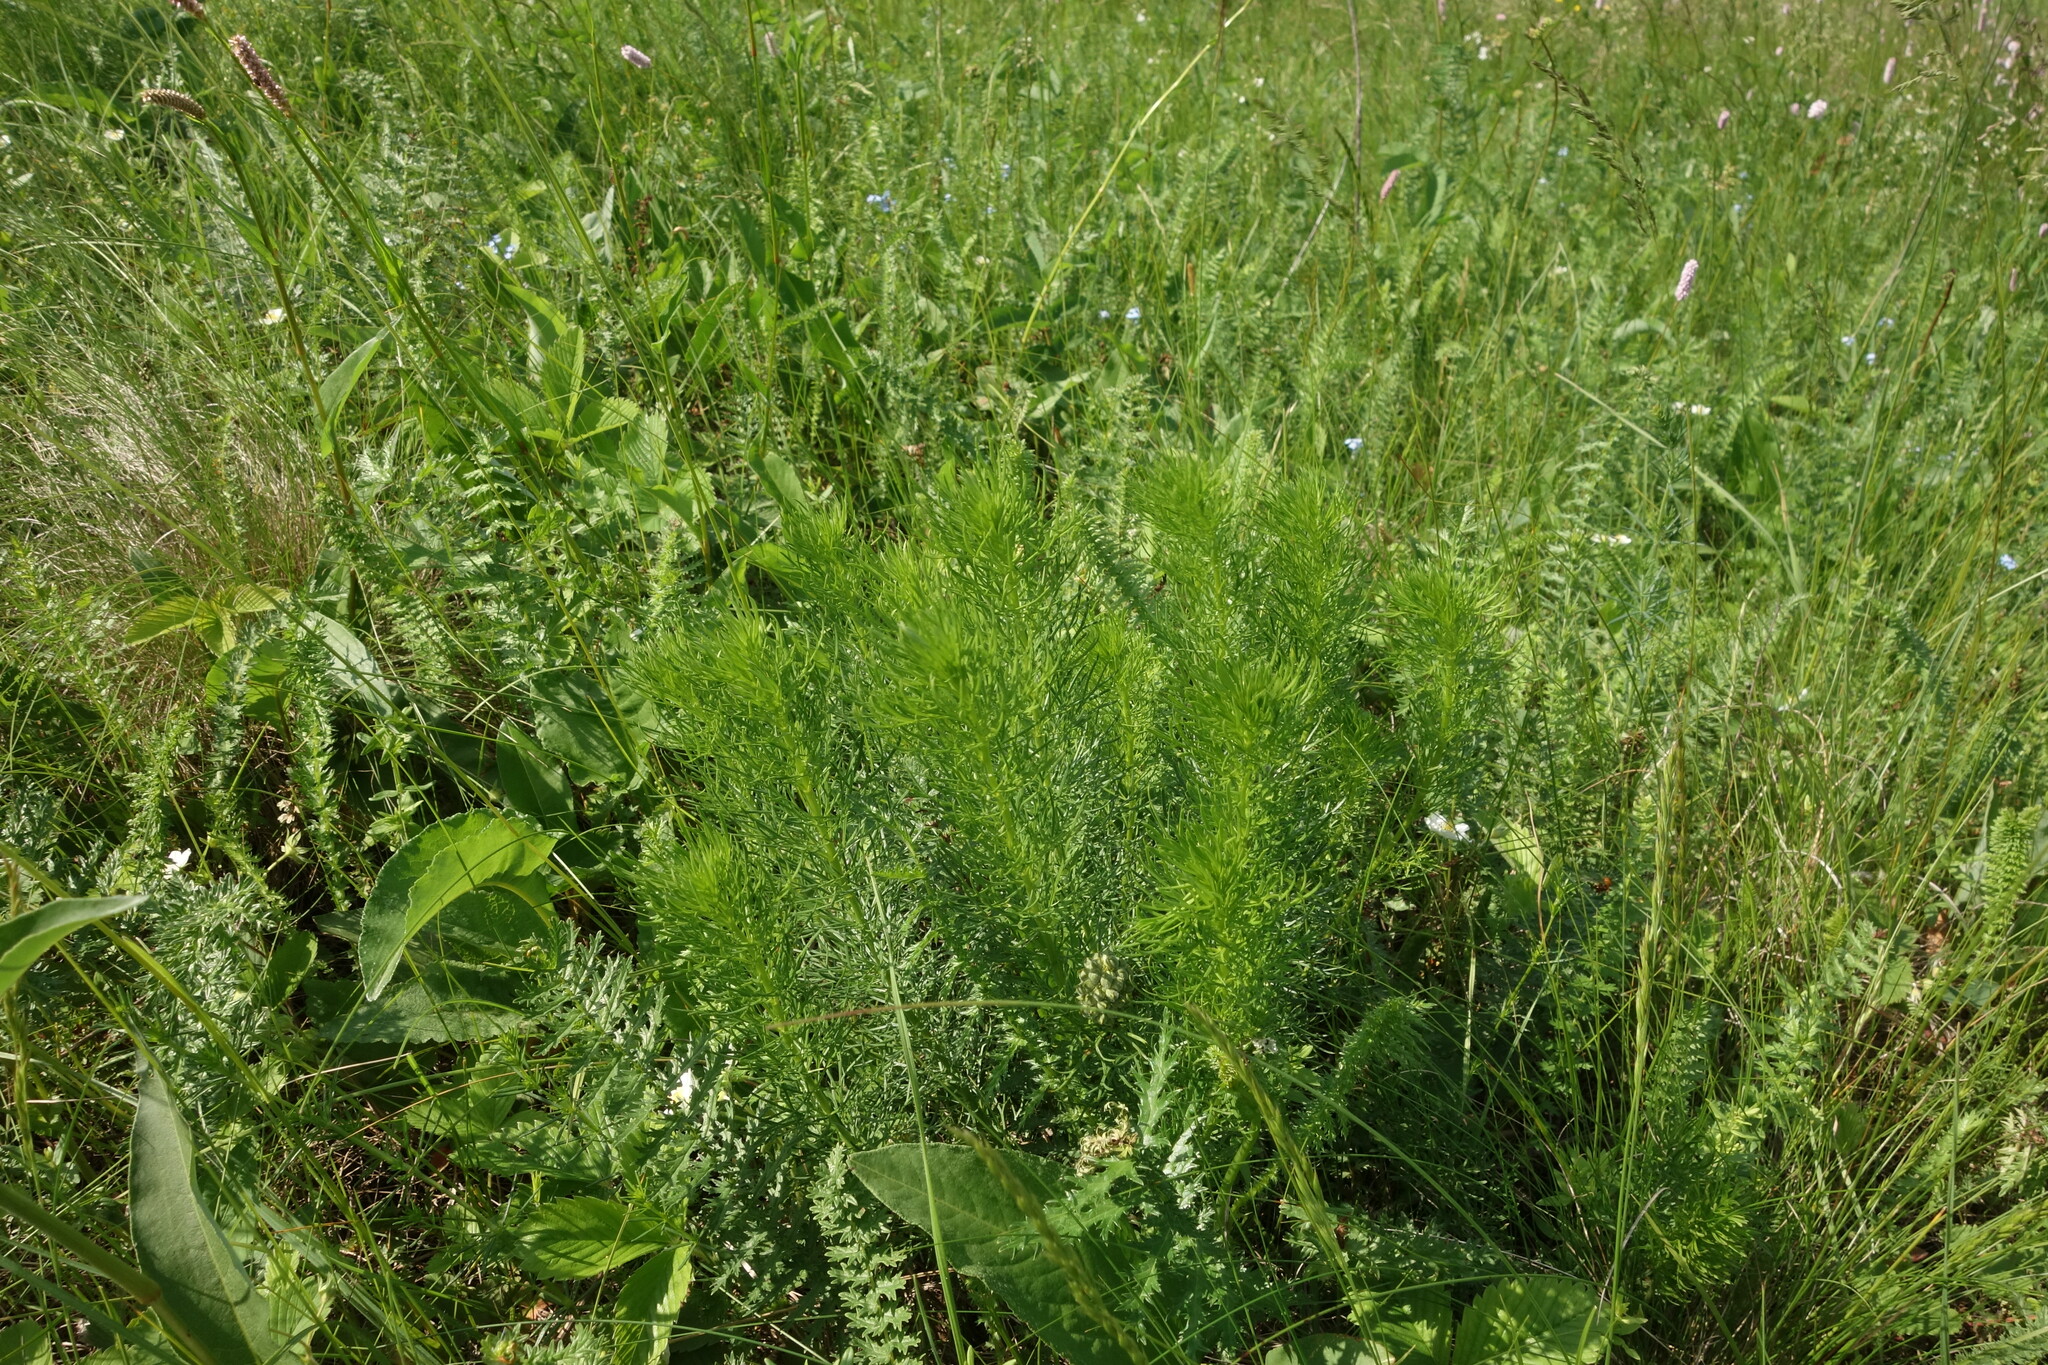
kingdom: Plantae
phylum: Tracheophyta
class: Magnoliopsida
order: Ranunculales
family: Ranunculaceae
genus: Adonis
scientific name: Adonis vernalis
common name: Yellow pheasants-eye
